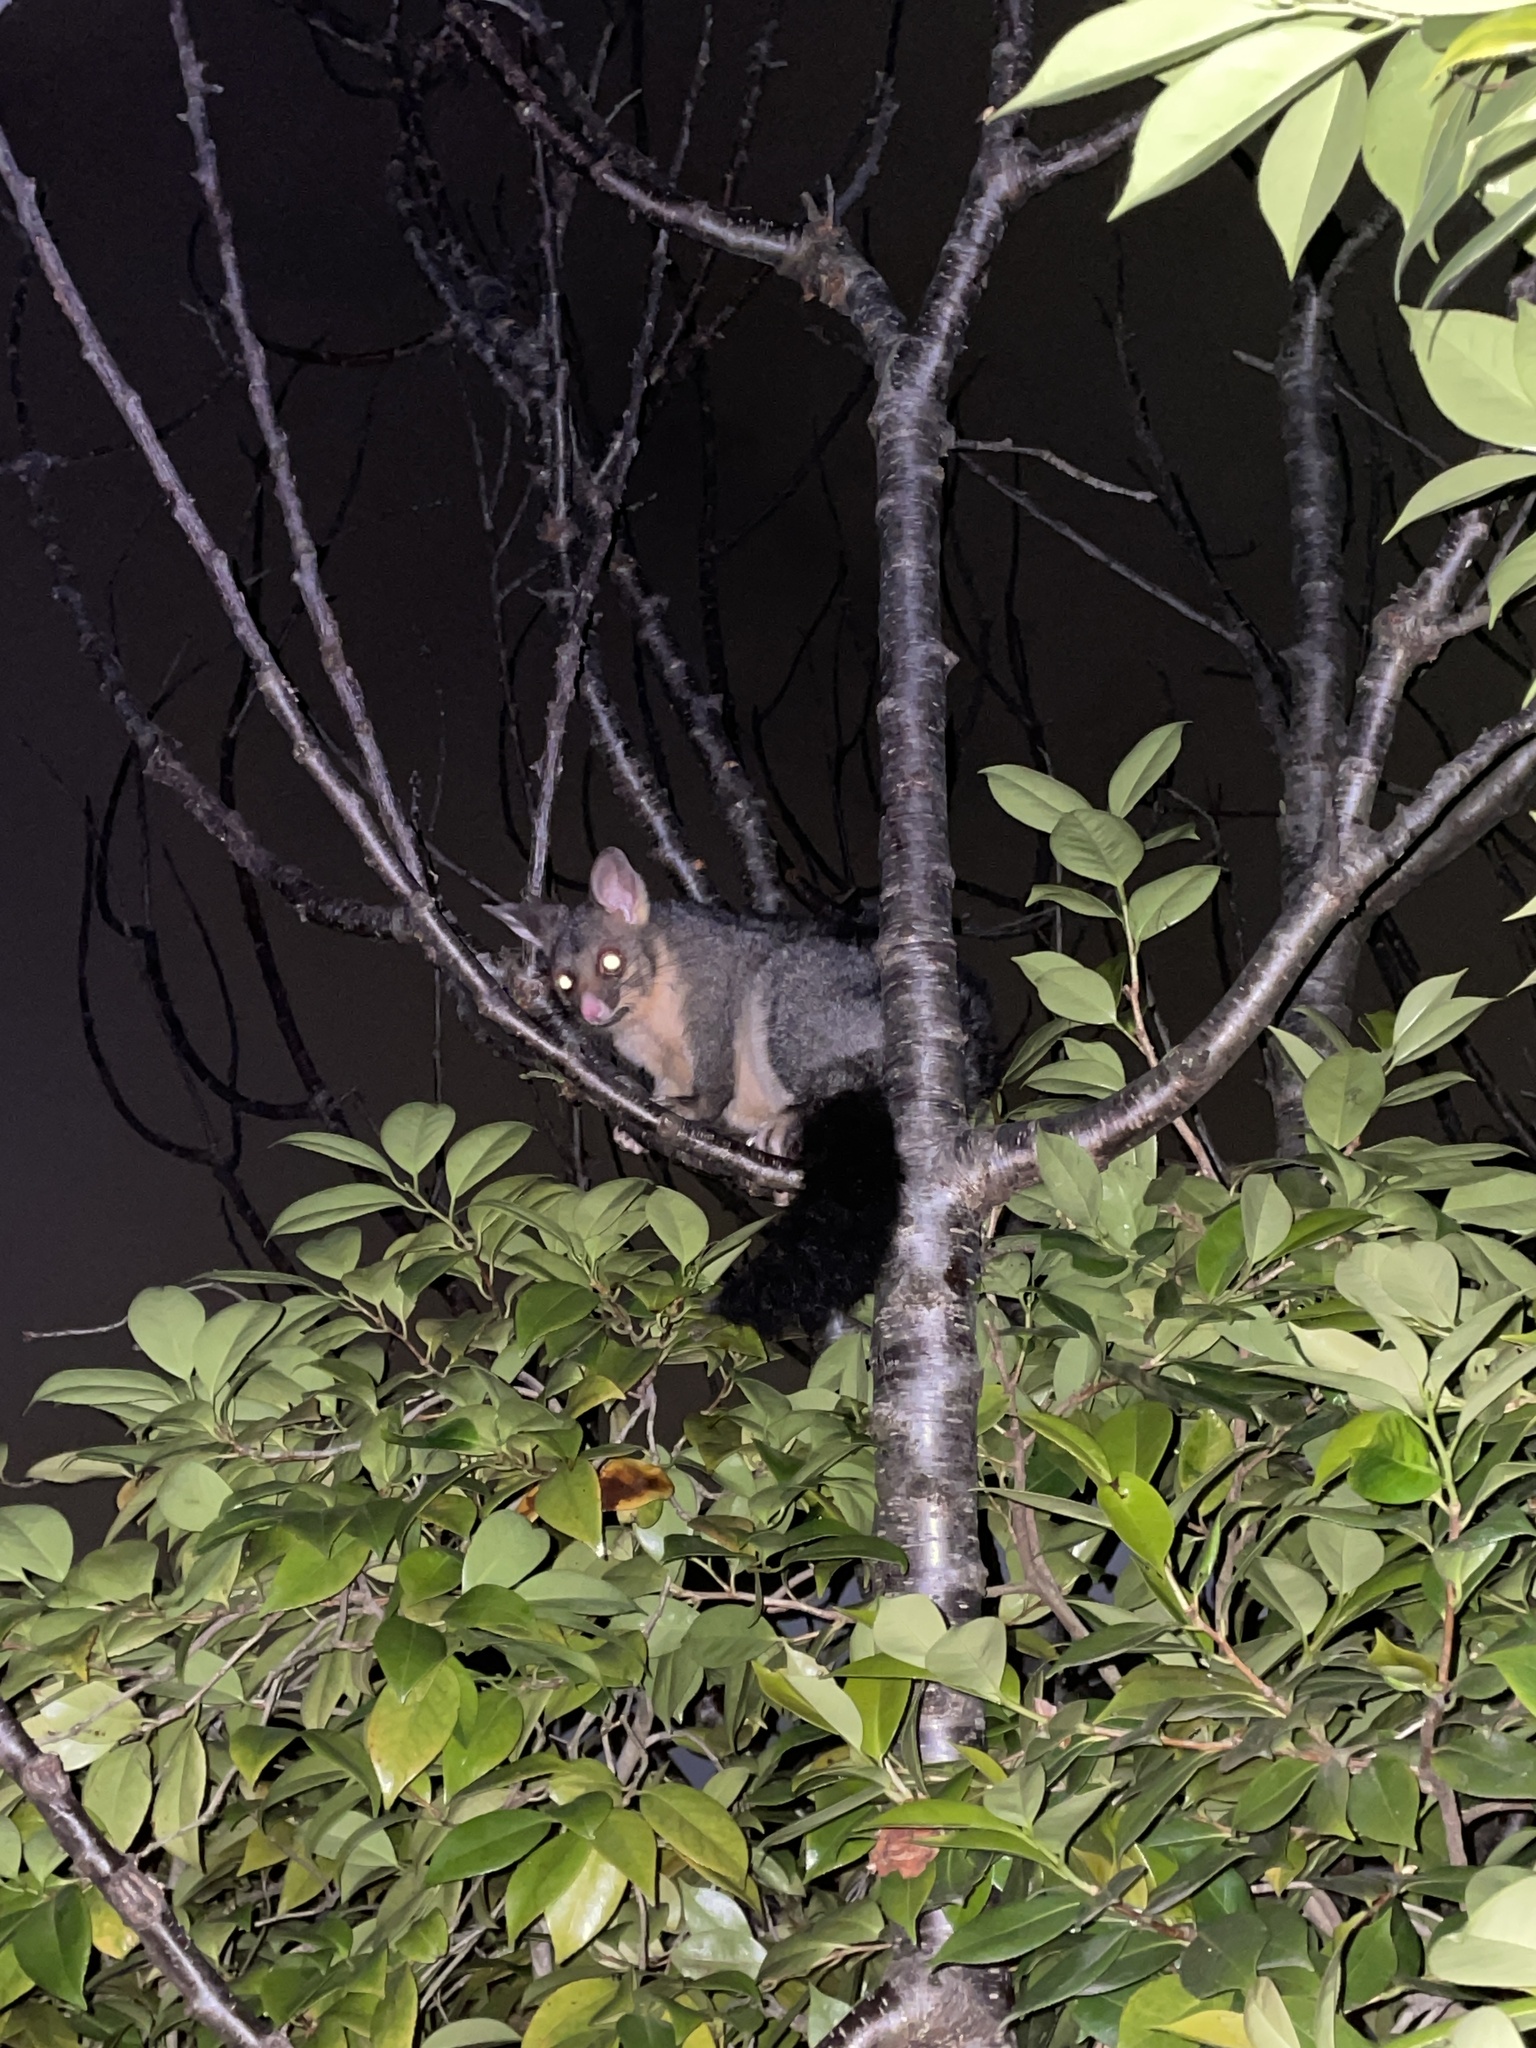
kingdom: Animalia
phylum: Chordata
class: Mammalia
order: Diprotodontia
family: Phalangeridae
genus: Trichosurus
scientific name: Trichosurus vulpecula
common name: Common brushtail
